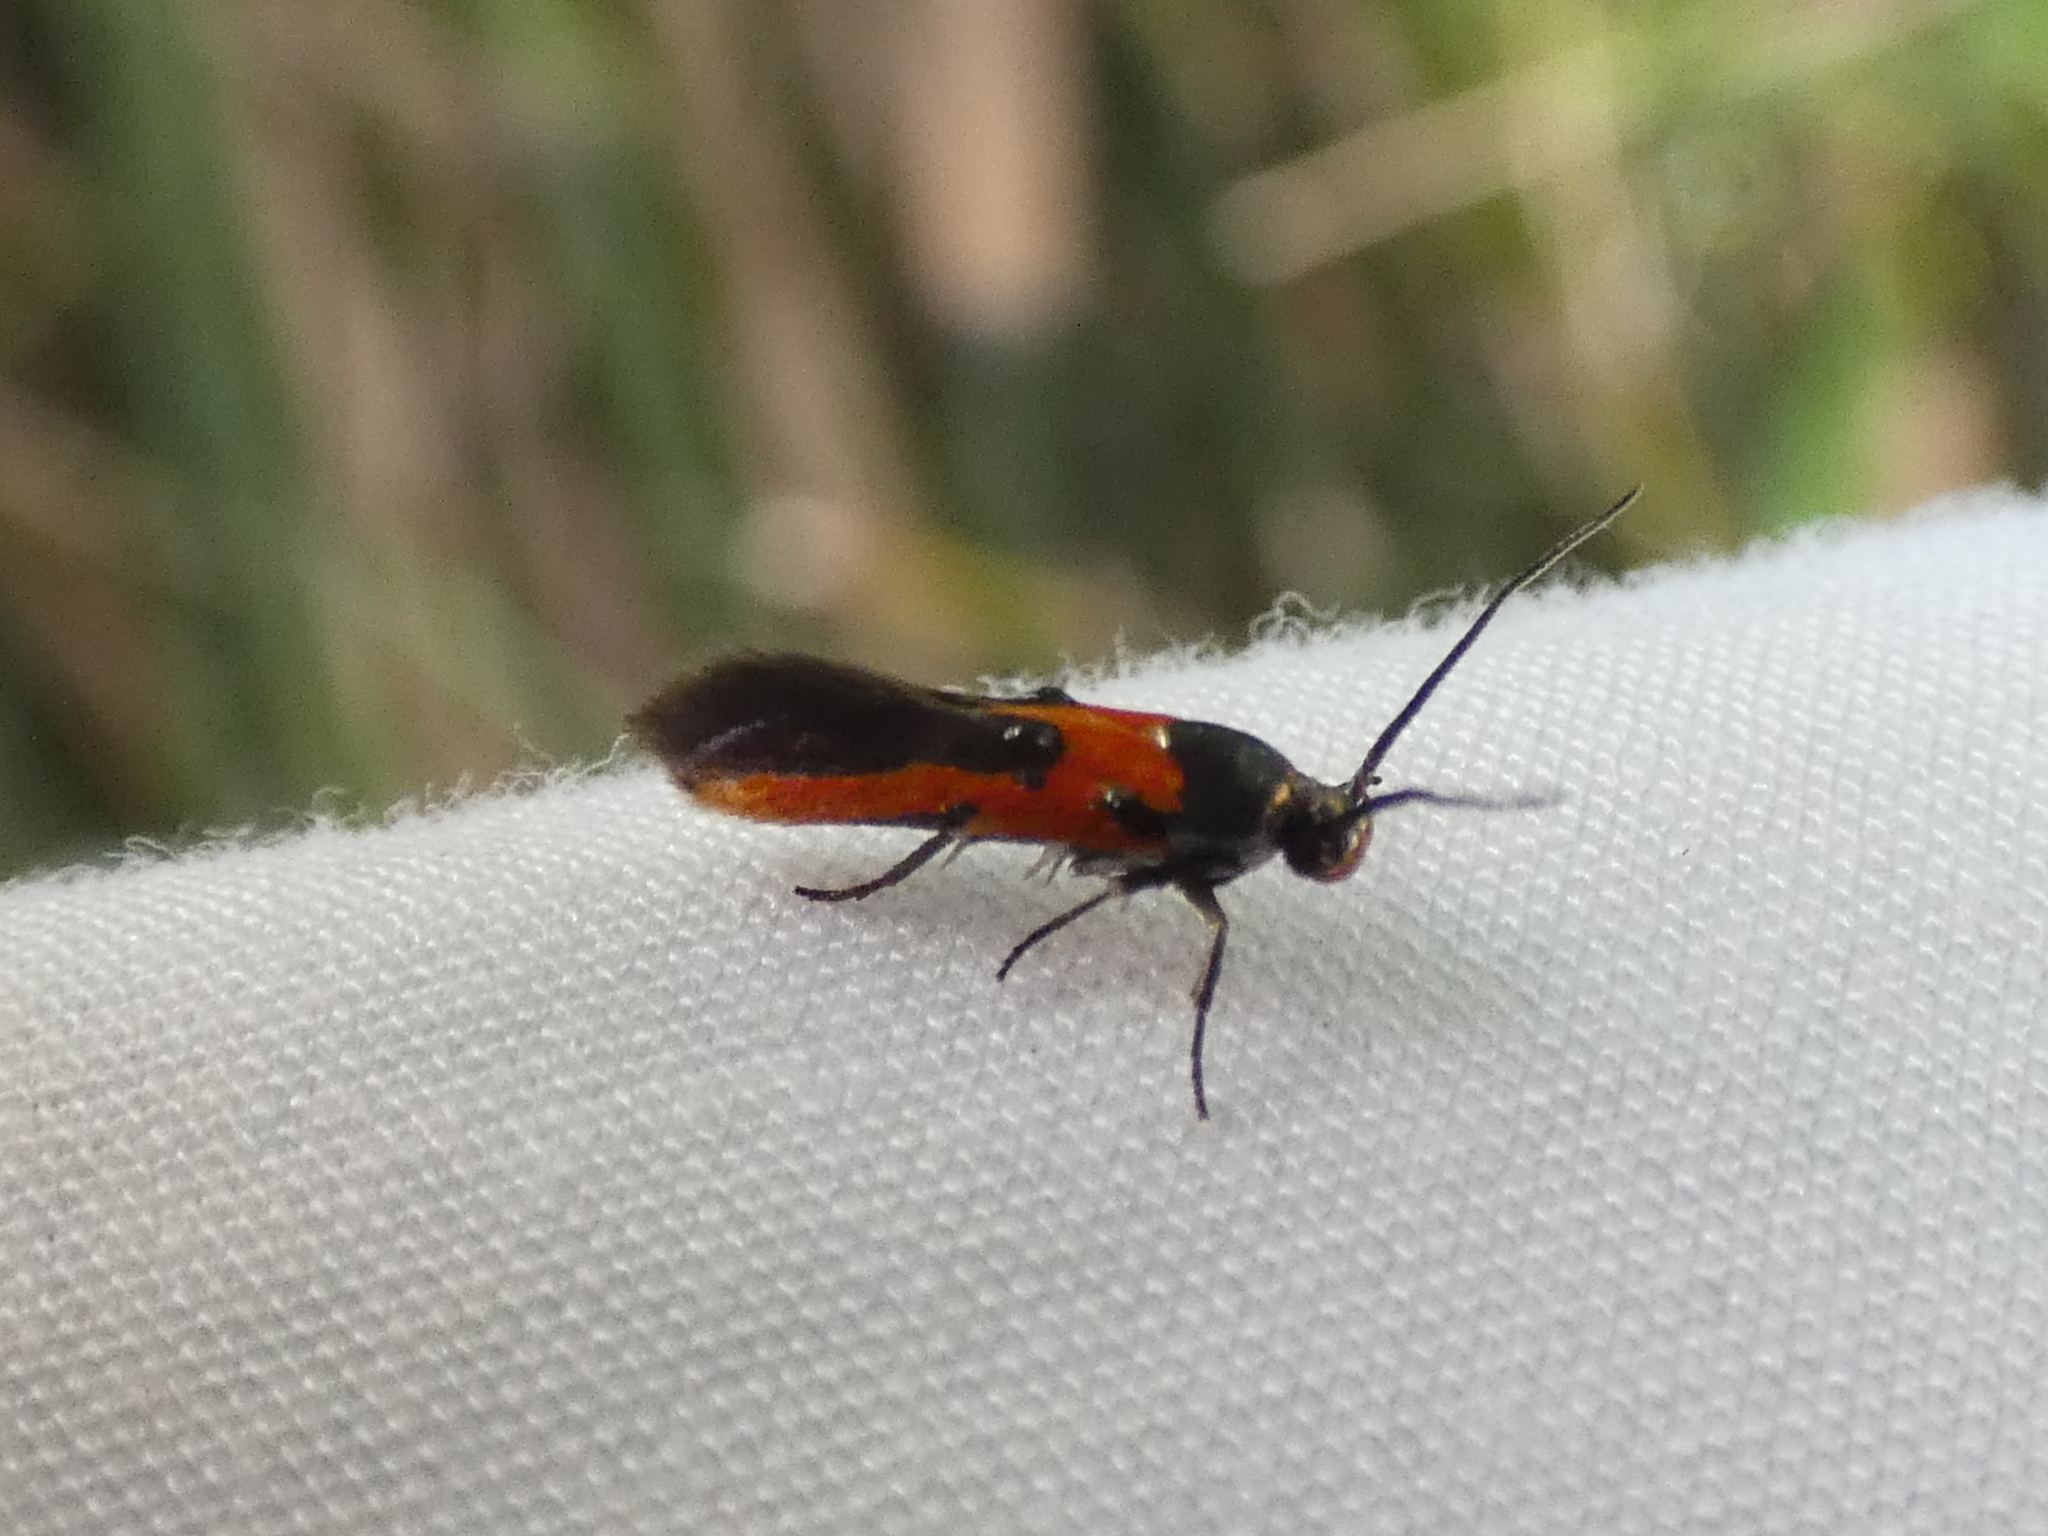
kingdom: Animalia
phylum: Arthropoda
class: Insecta
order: Lepidoptera
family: Cosmopterigidae
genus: Euclemensia
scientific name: Euclemensia bassettella
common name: Kermes scale moth
